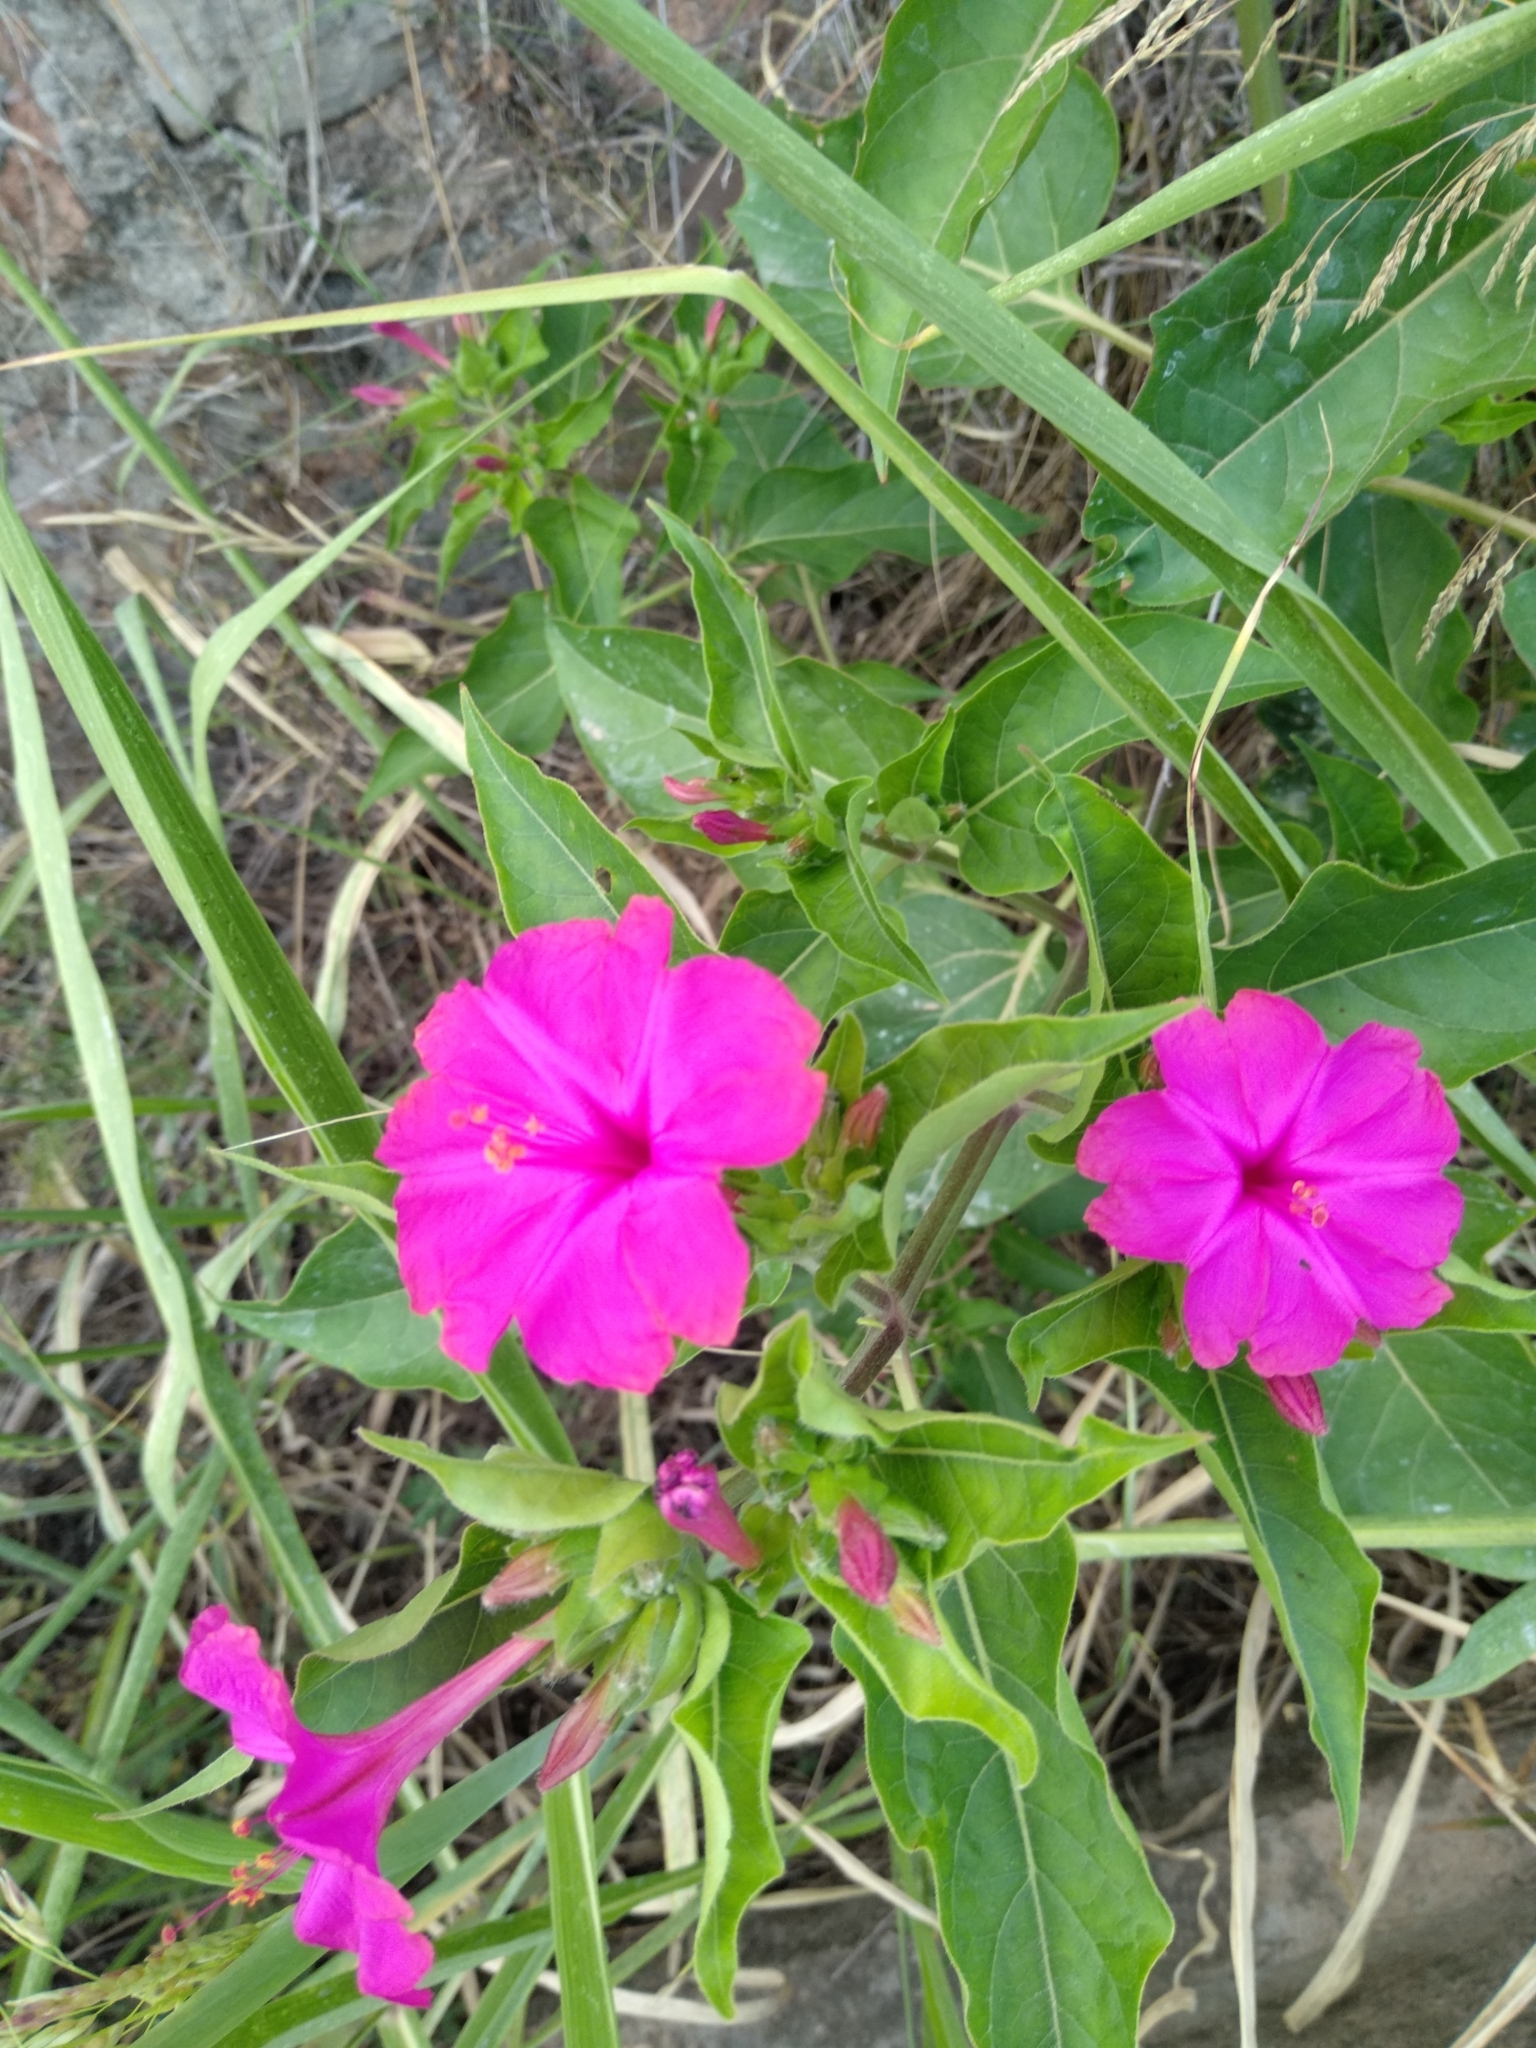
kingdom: Plantae
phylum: Tracheophyta
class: Magnoliopsida
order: Caryophyllales
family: Nyctaginaceae
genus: Mirabilis
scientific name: Mirabilis jalapa
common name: Marvel-of-peru
